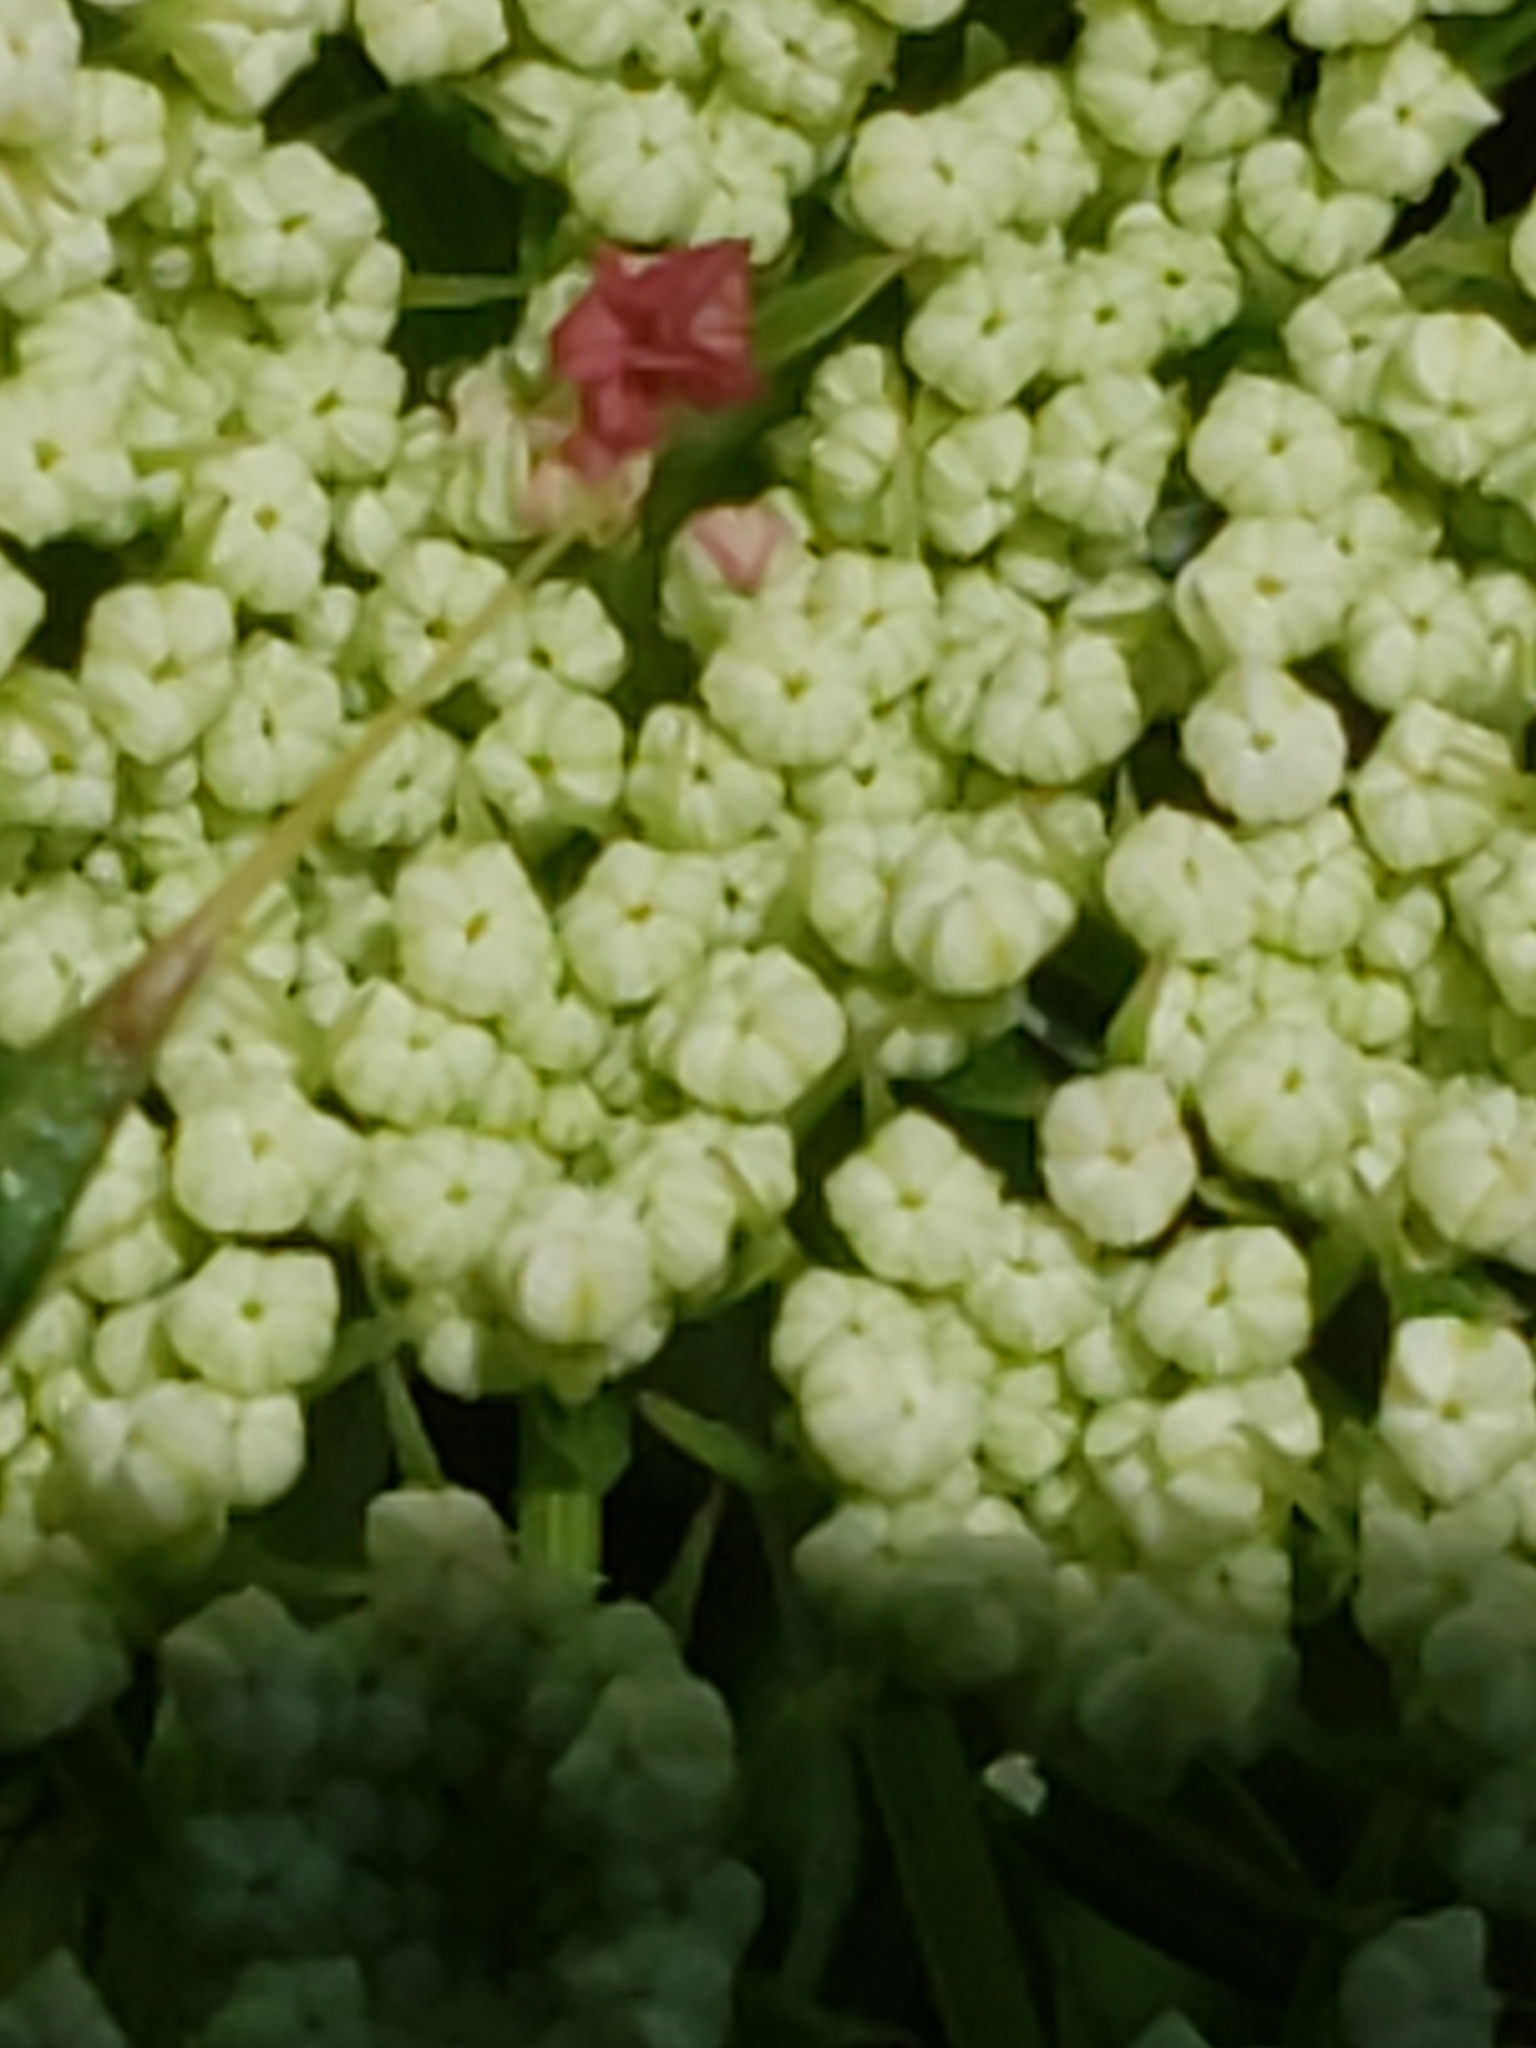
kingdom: Plantae
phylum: Tracheophyta
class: Magnoliopsida
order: Apiales
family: Apiaceae
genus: Daucus
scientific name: Daucus carota
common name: Wild carrot
